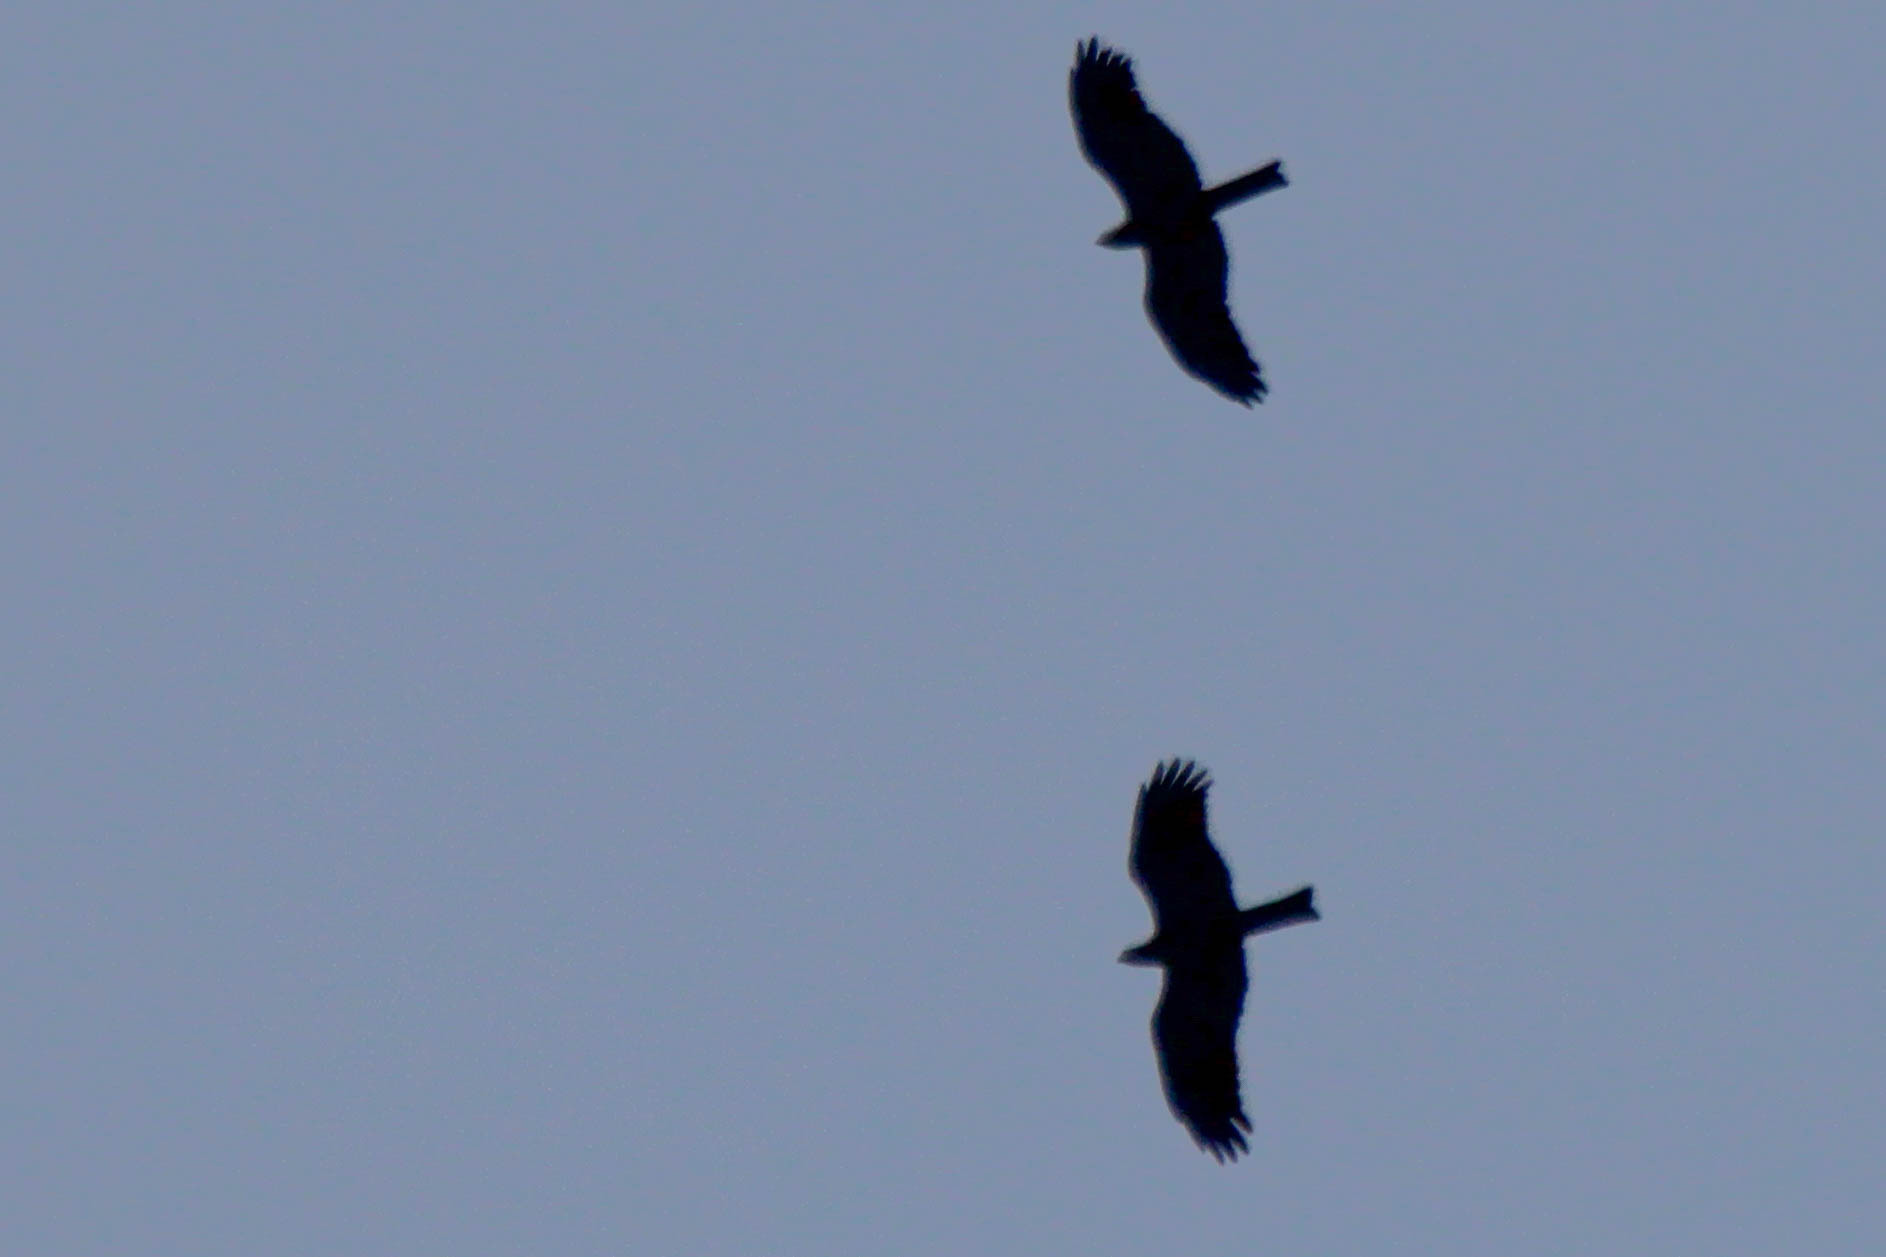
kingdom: Animalia
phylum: Chordata
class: Aves
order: Accipitriformes
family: Accipitridae
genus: Milvus
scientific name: Milvus migrans
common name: Black kite
